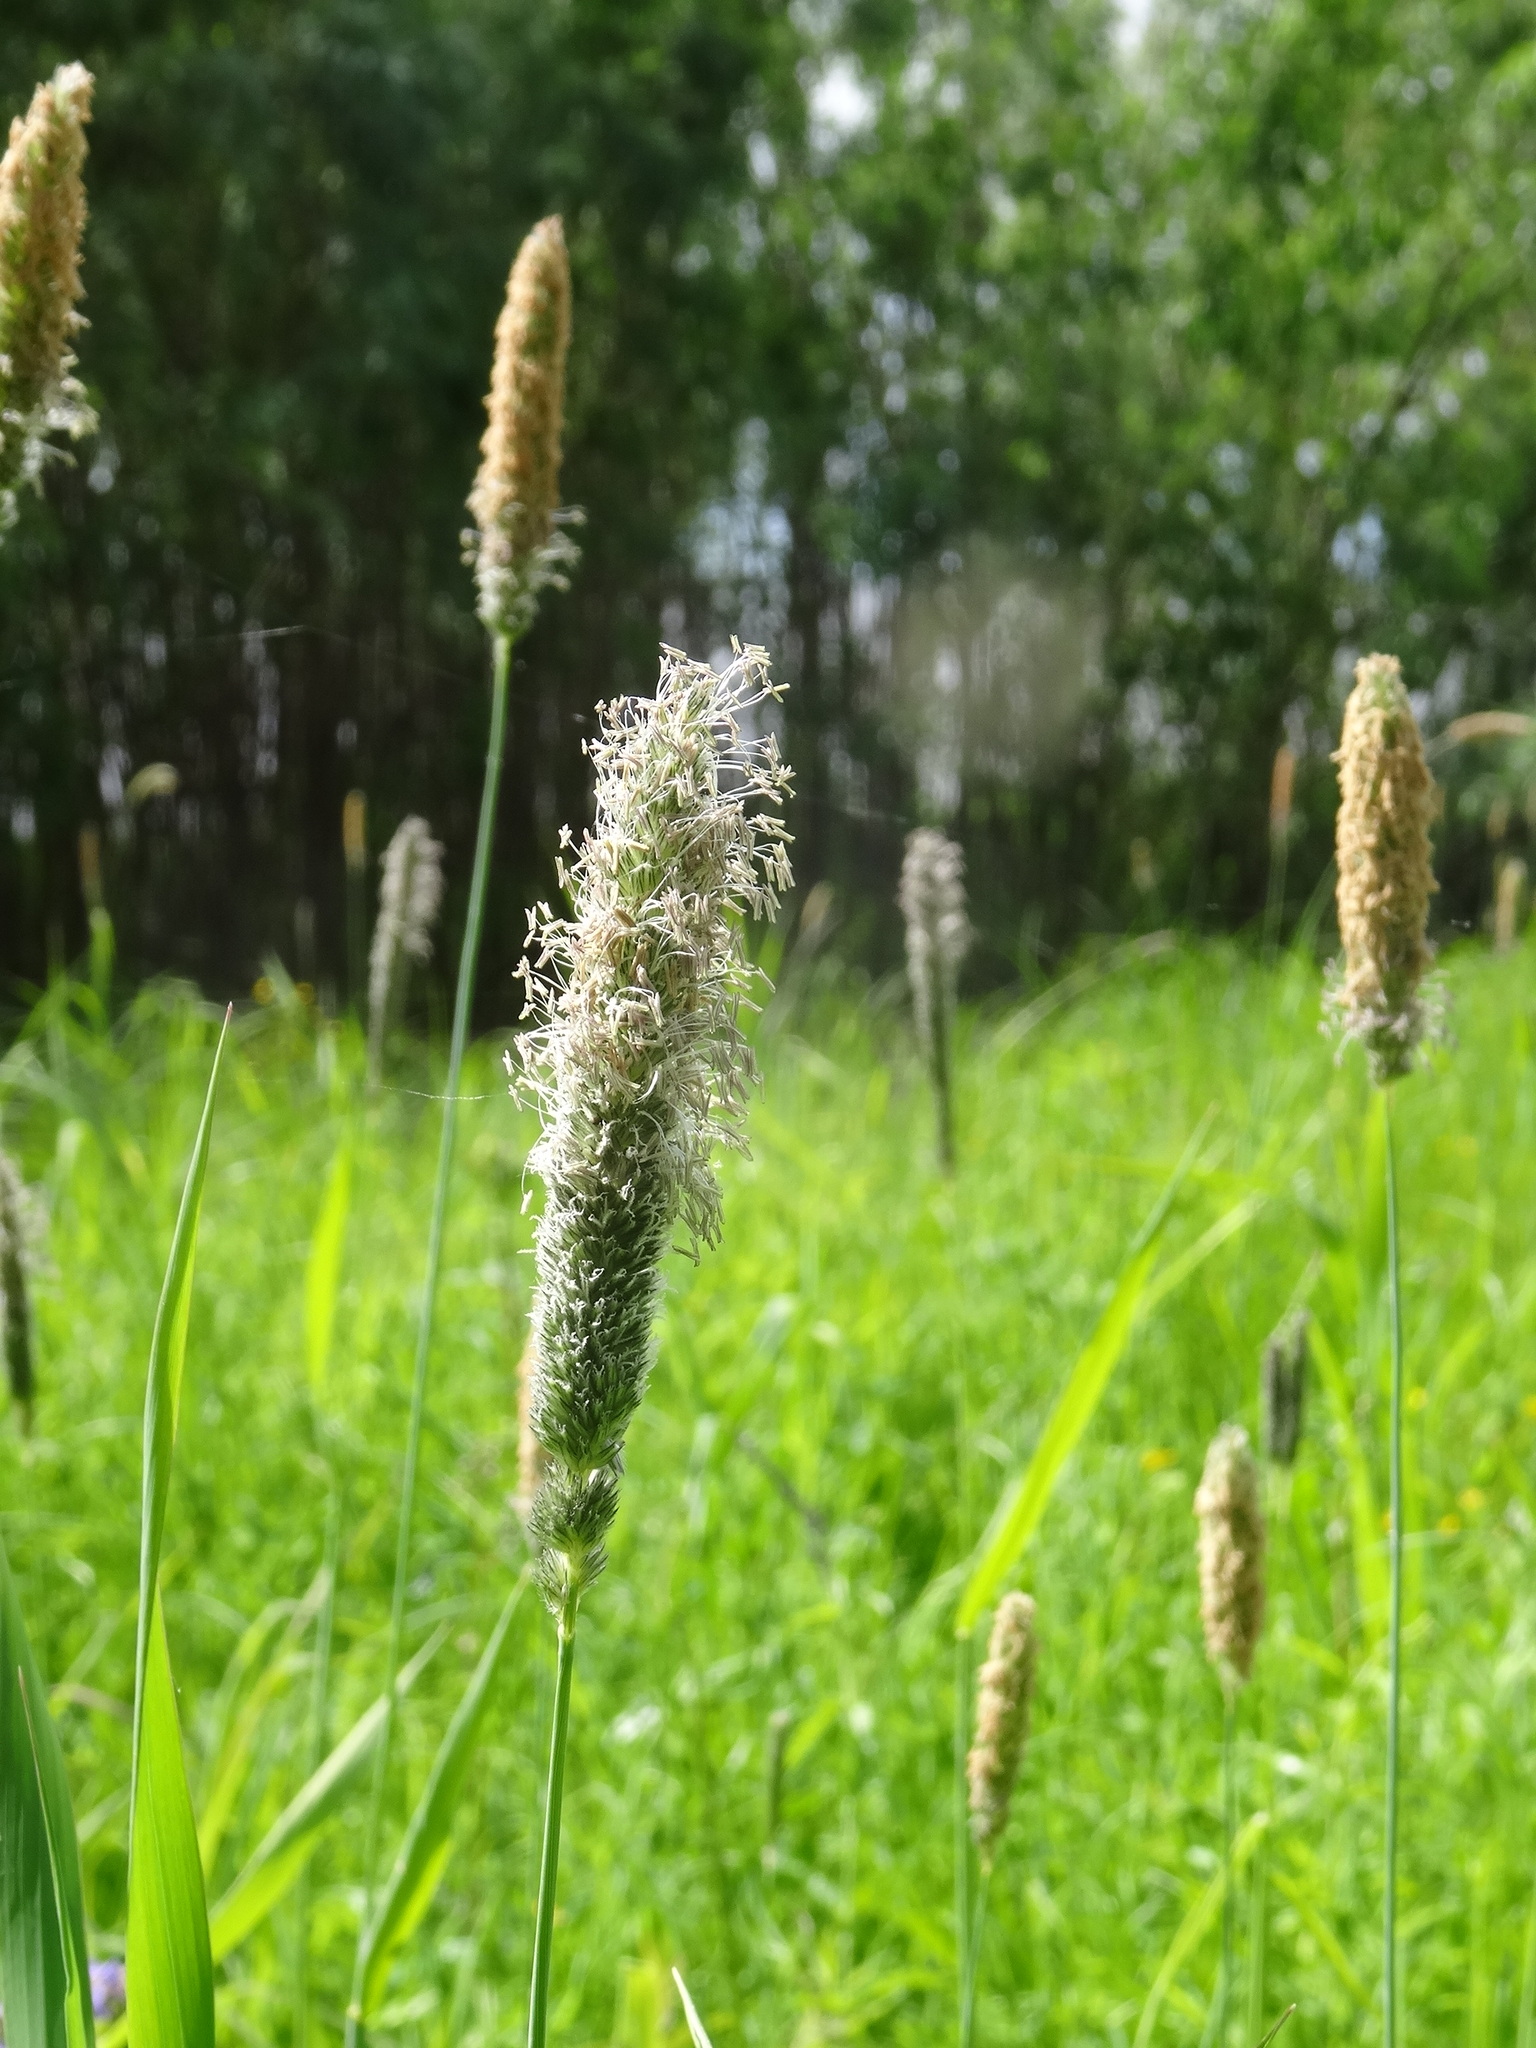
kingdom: Plantae
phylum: Tracheophyta
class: Liliopsida
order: Poales
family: Poaceae
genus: Alopecurus
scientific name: Alopecurus pratensis
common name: Meadow foxtail
